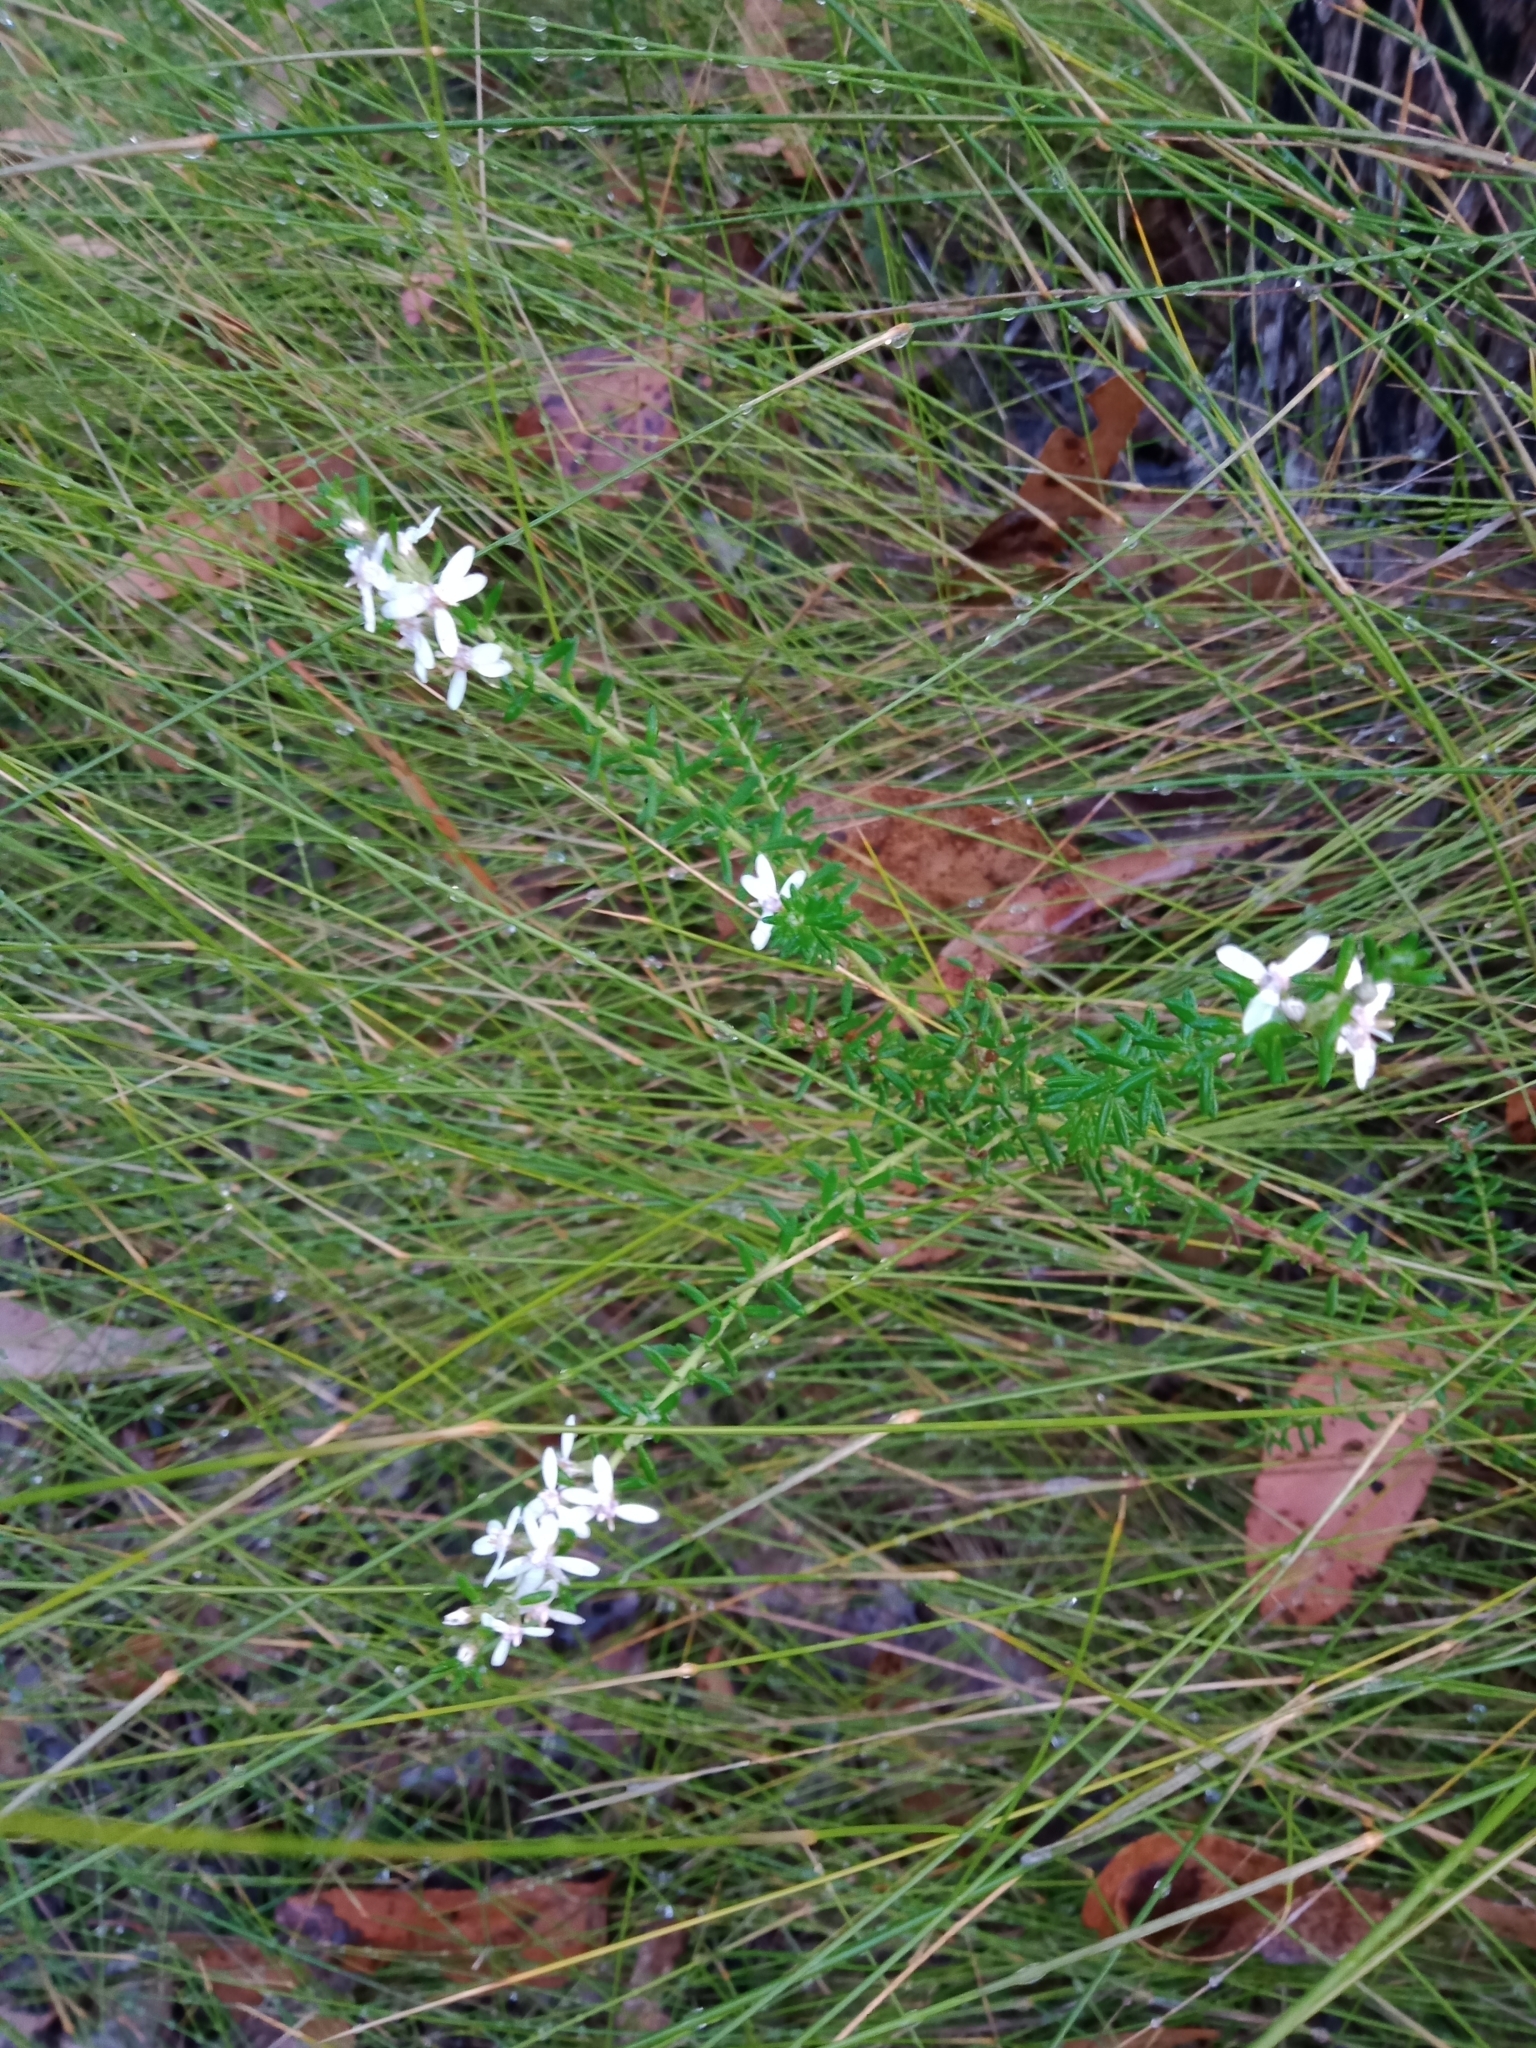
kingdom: Plantae
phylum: Tracheophyta
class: Magnoliopsida
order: Asterales
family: Asteraceae
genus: Olearia
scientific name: Olearia ramulosa
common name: Twiggy daisybush
